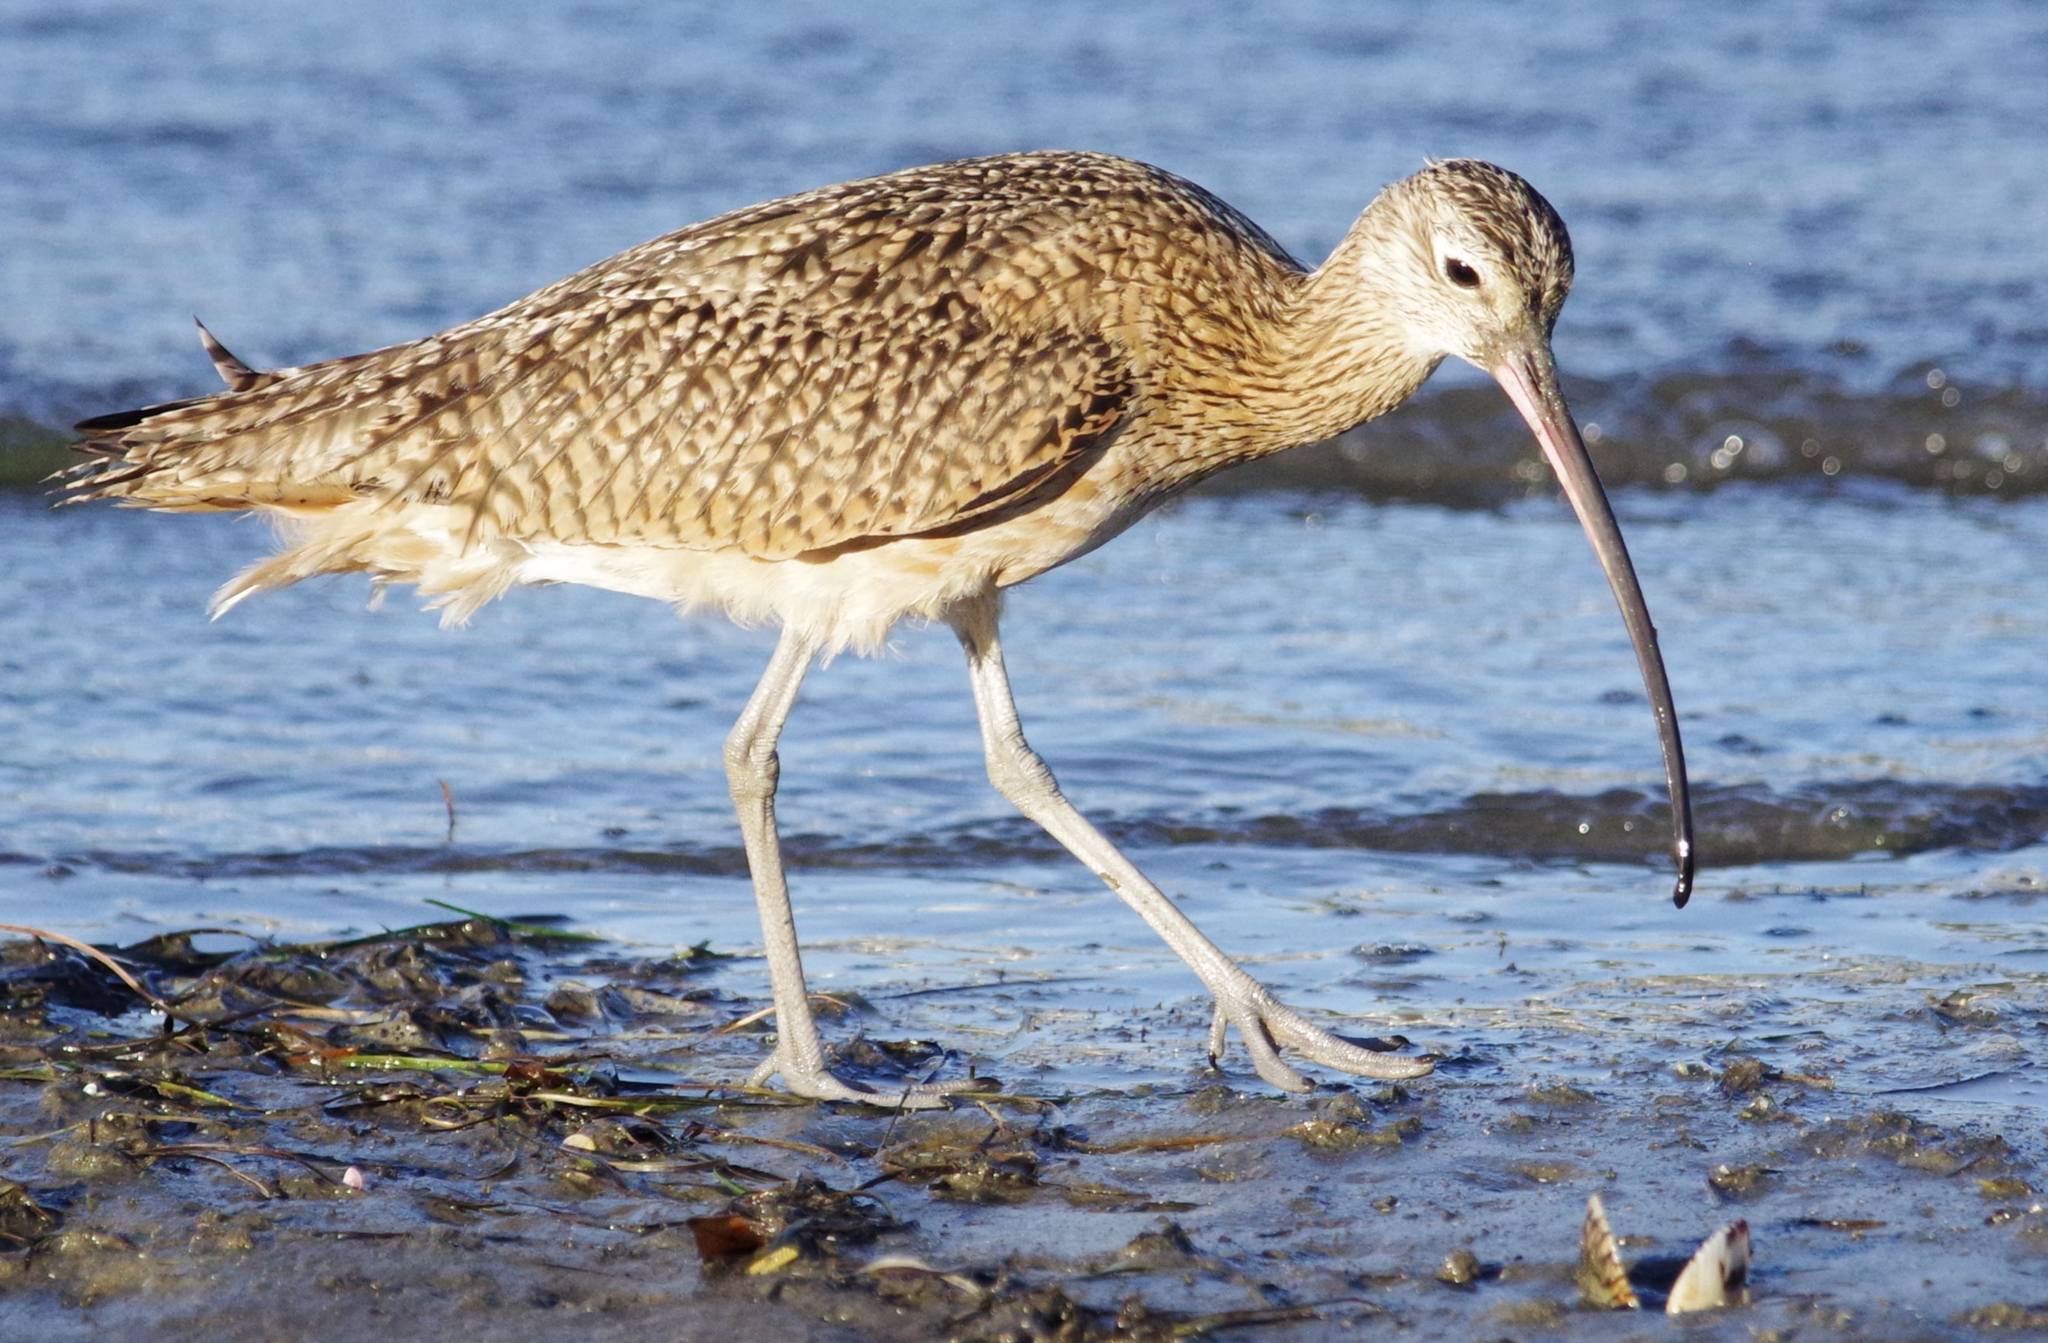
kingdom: Animalia
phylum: Chordata
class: Aves
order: Charadriiformes
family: Scolopacidae
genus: Numenius
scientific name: Numenius americanus
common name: Long-billed curlew
